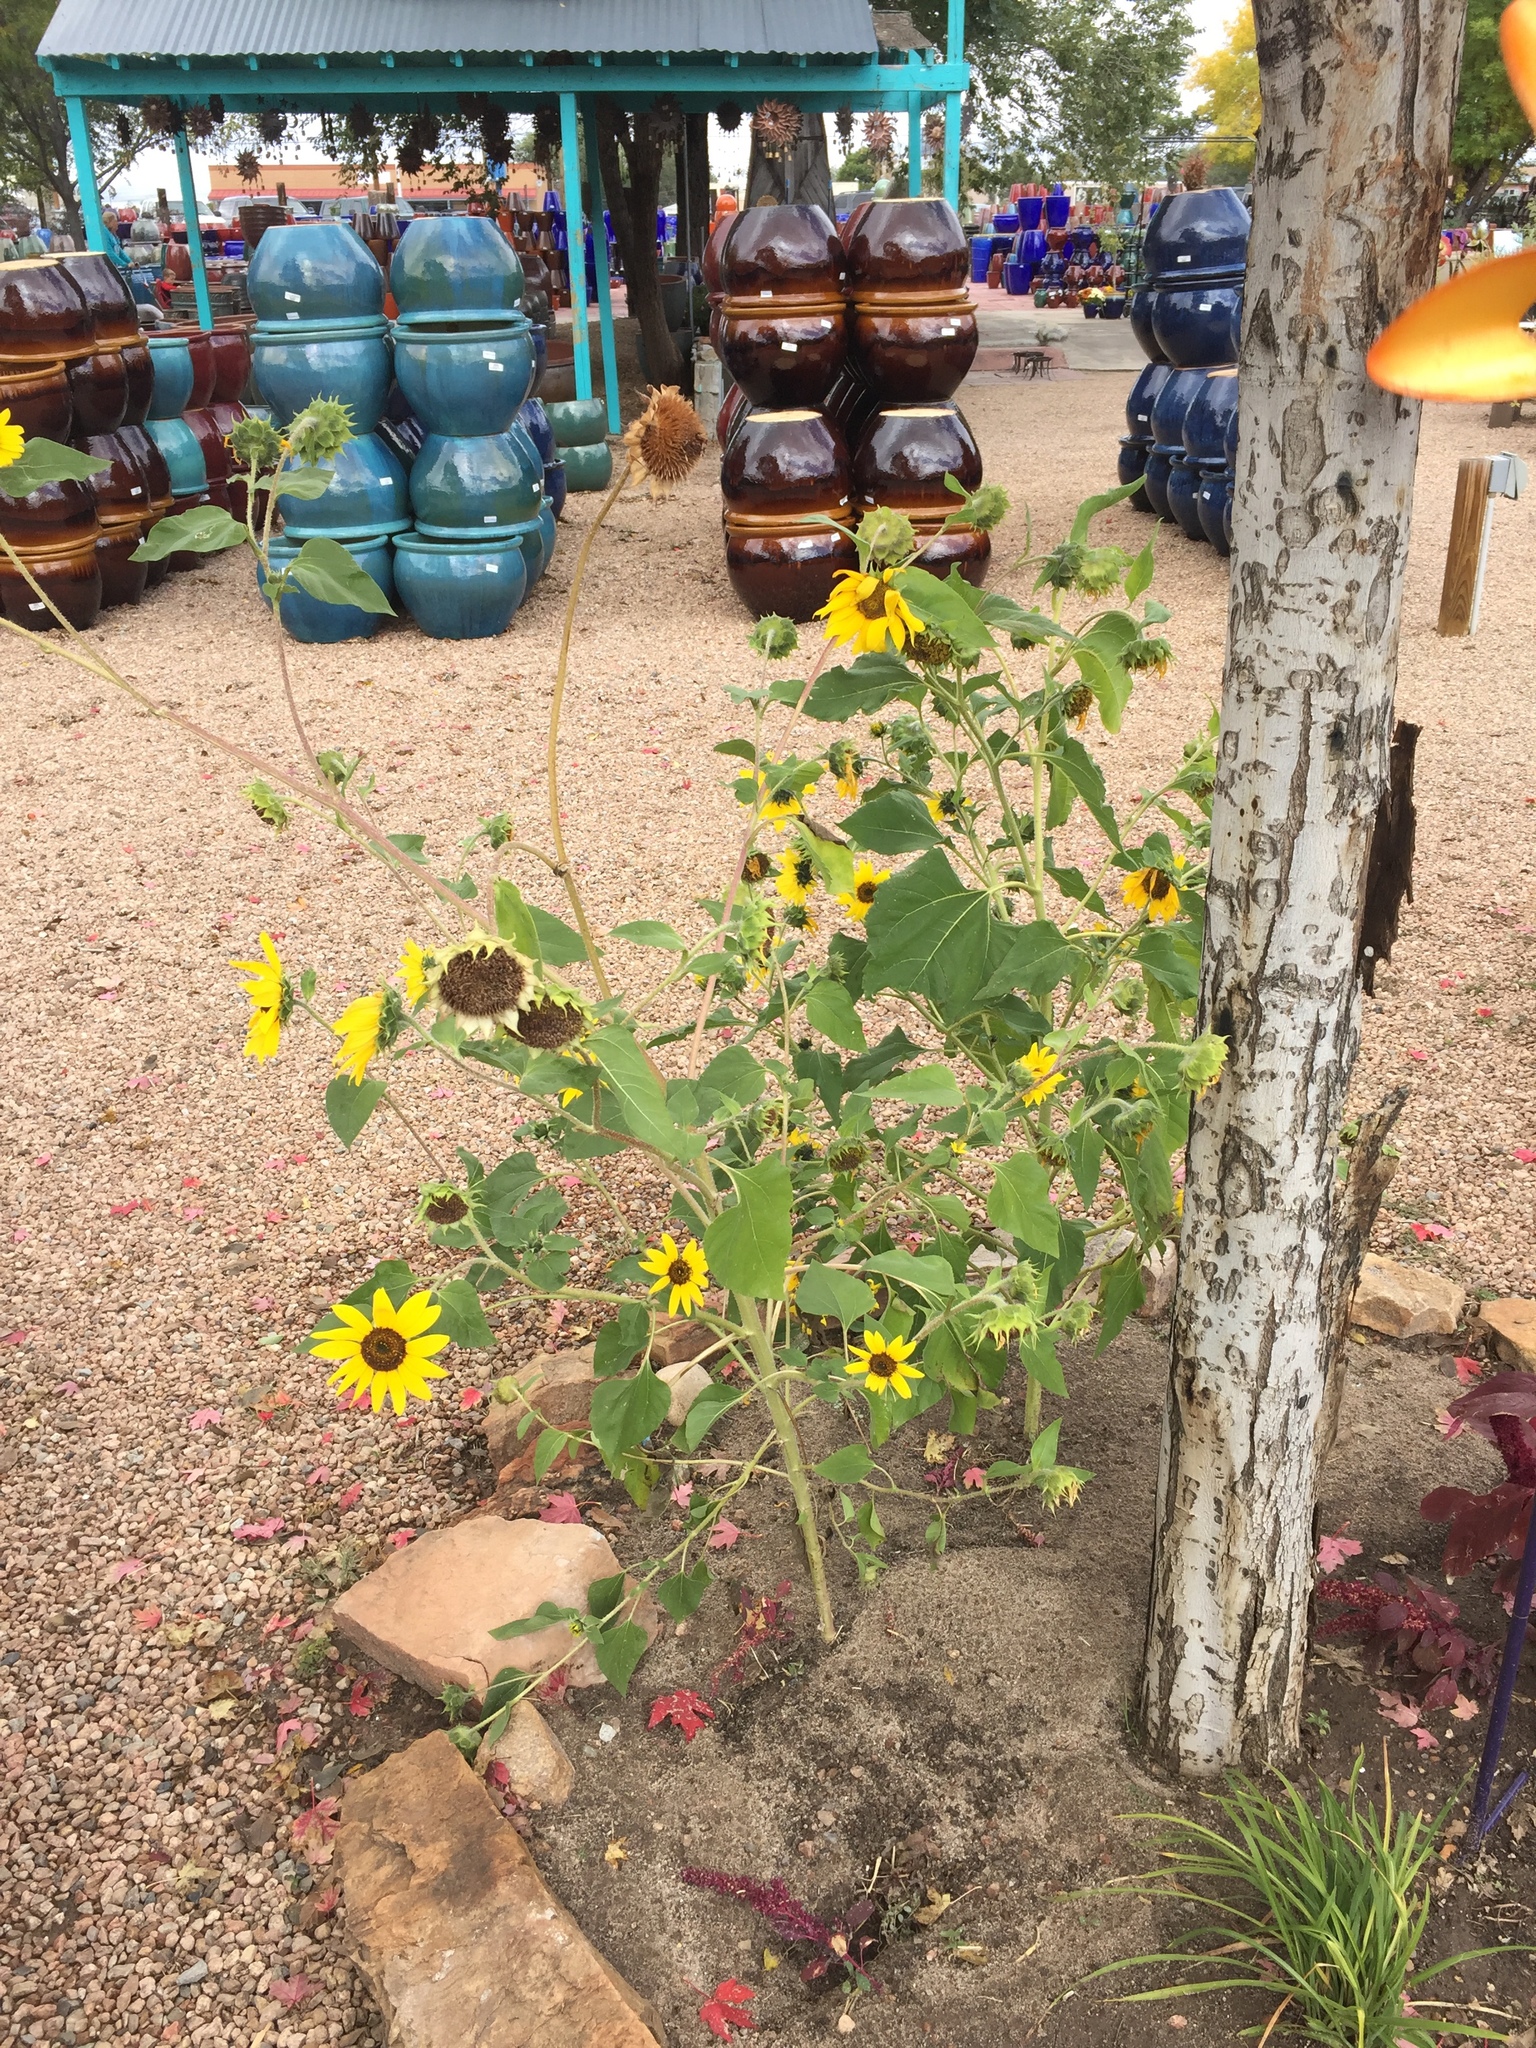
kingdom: Plantae
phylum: Tracheophyta
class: Magnoliopsida
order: Asterales
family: Asteraceae
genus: Helianthus
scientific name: Helianthus annuus
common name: Sunflower
